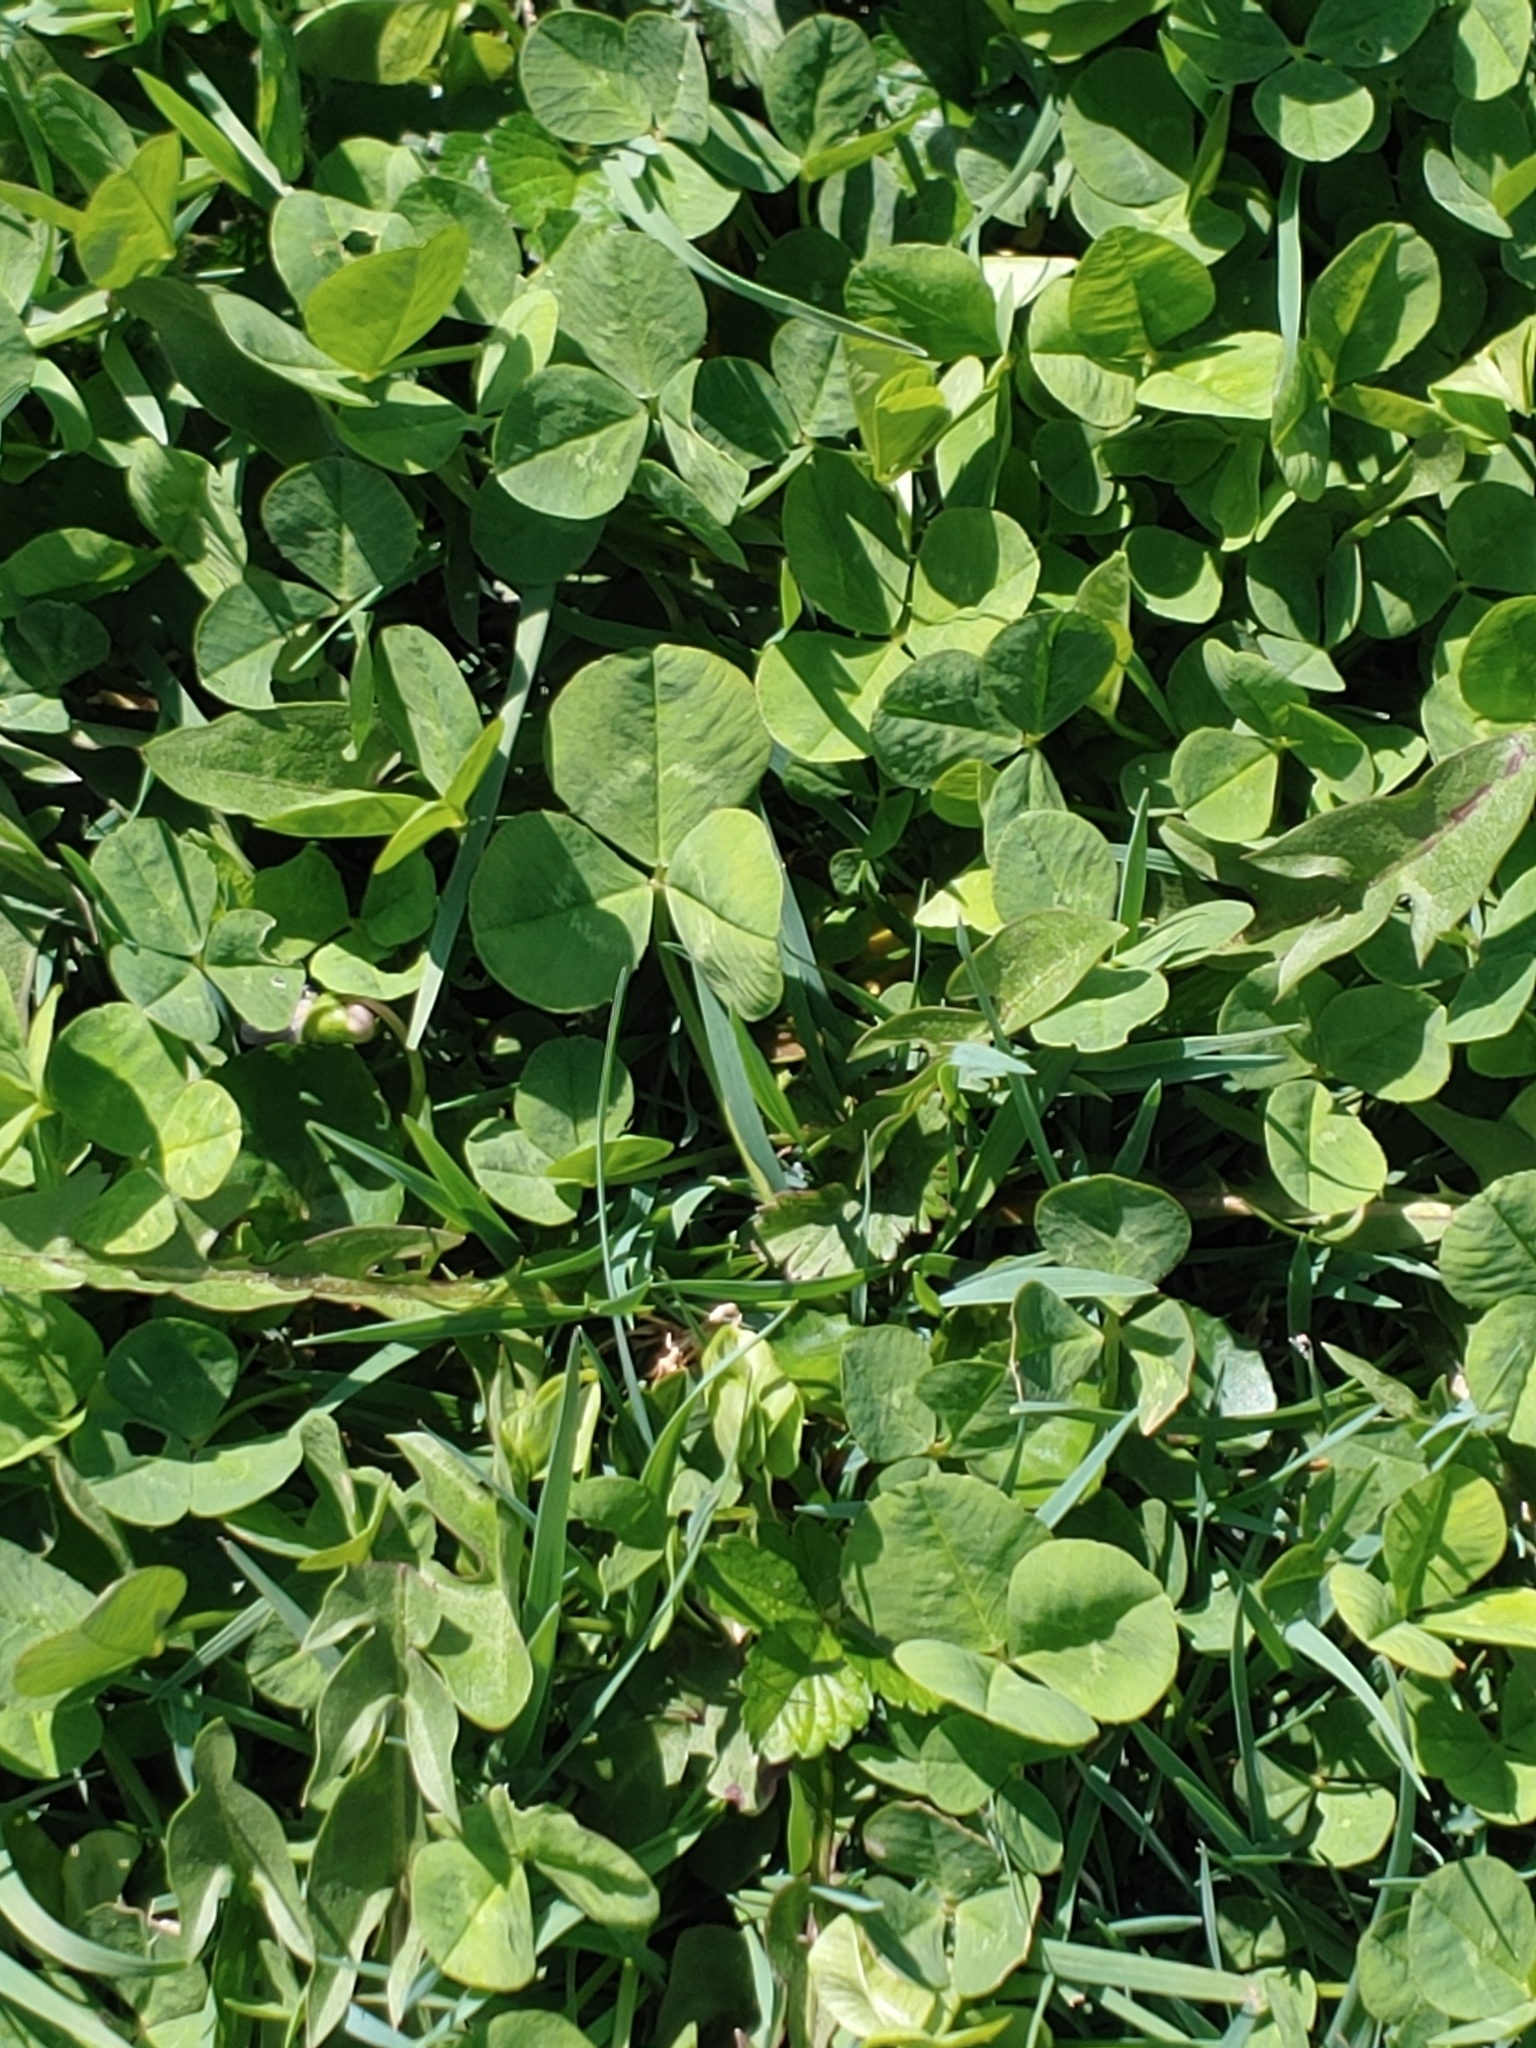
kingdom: Plantae
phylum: Tracheophyta
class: Magnoliopsida
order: Fabales
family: Fabaceae
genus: Trifolium
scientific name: Trifolium repens
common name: White clover
